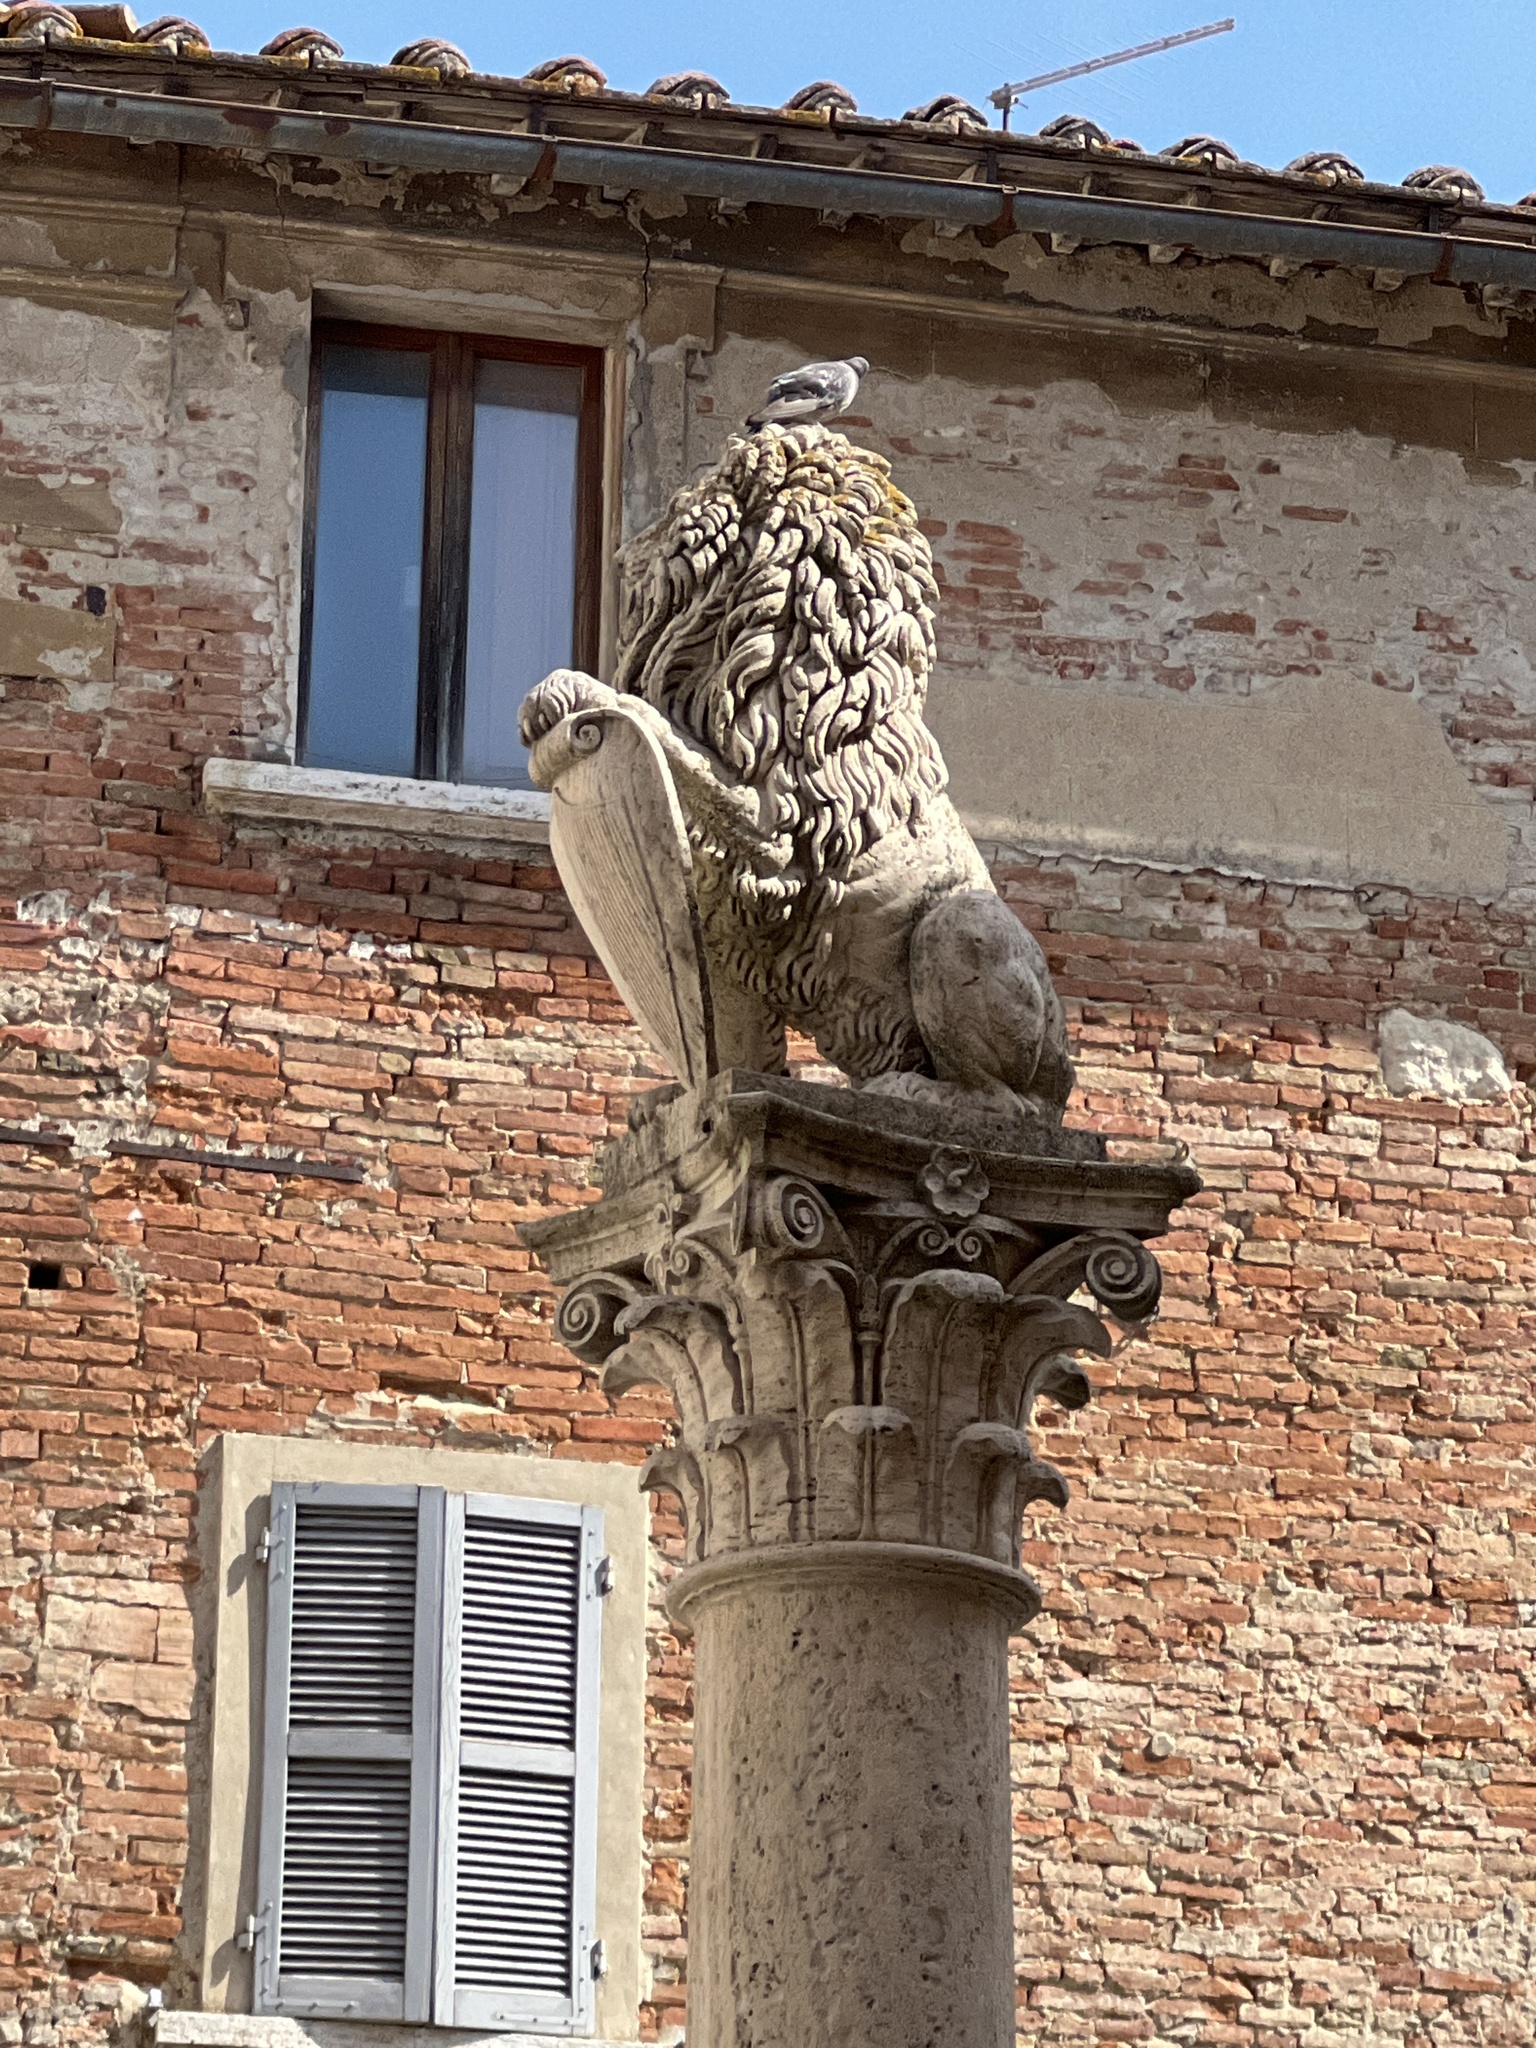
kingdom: Animalia
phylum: Chordata
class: Aves
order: Columbiformes
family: Columbidae
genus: Columba
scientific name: Columba livia
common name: Rock pigeon
